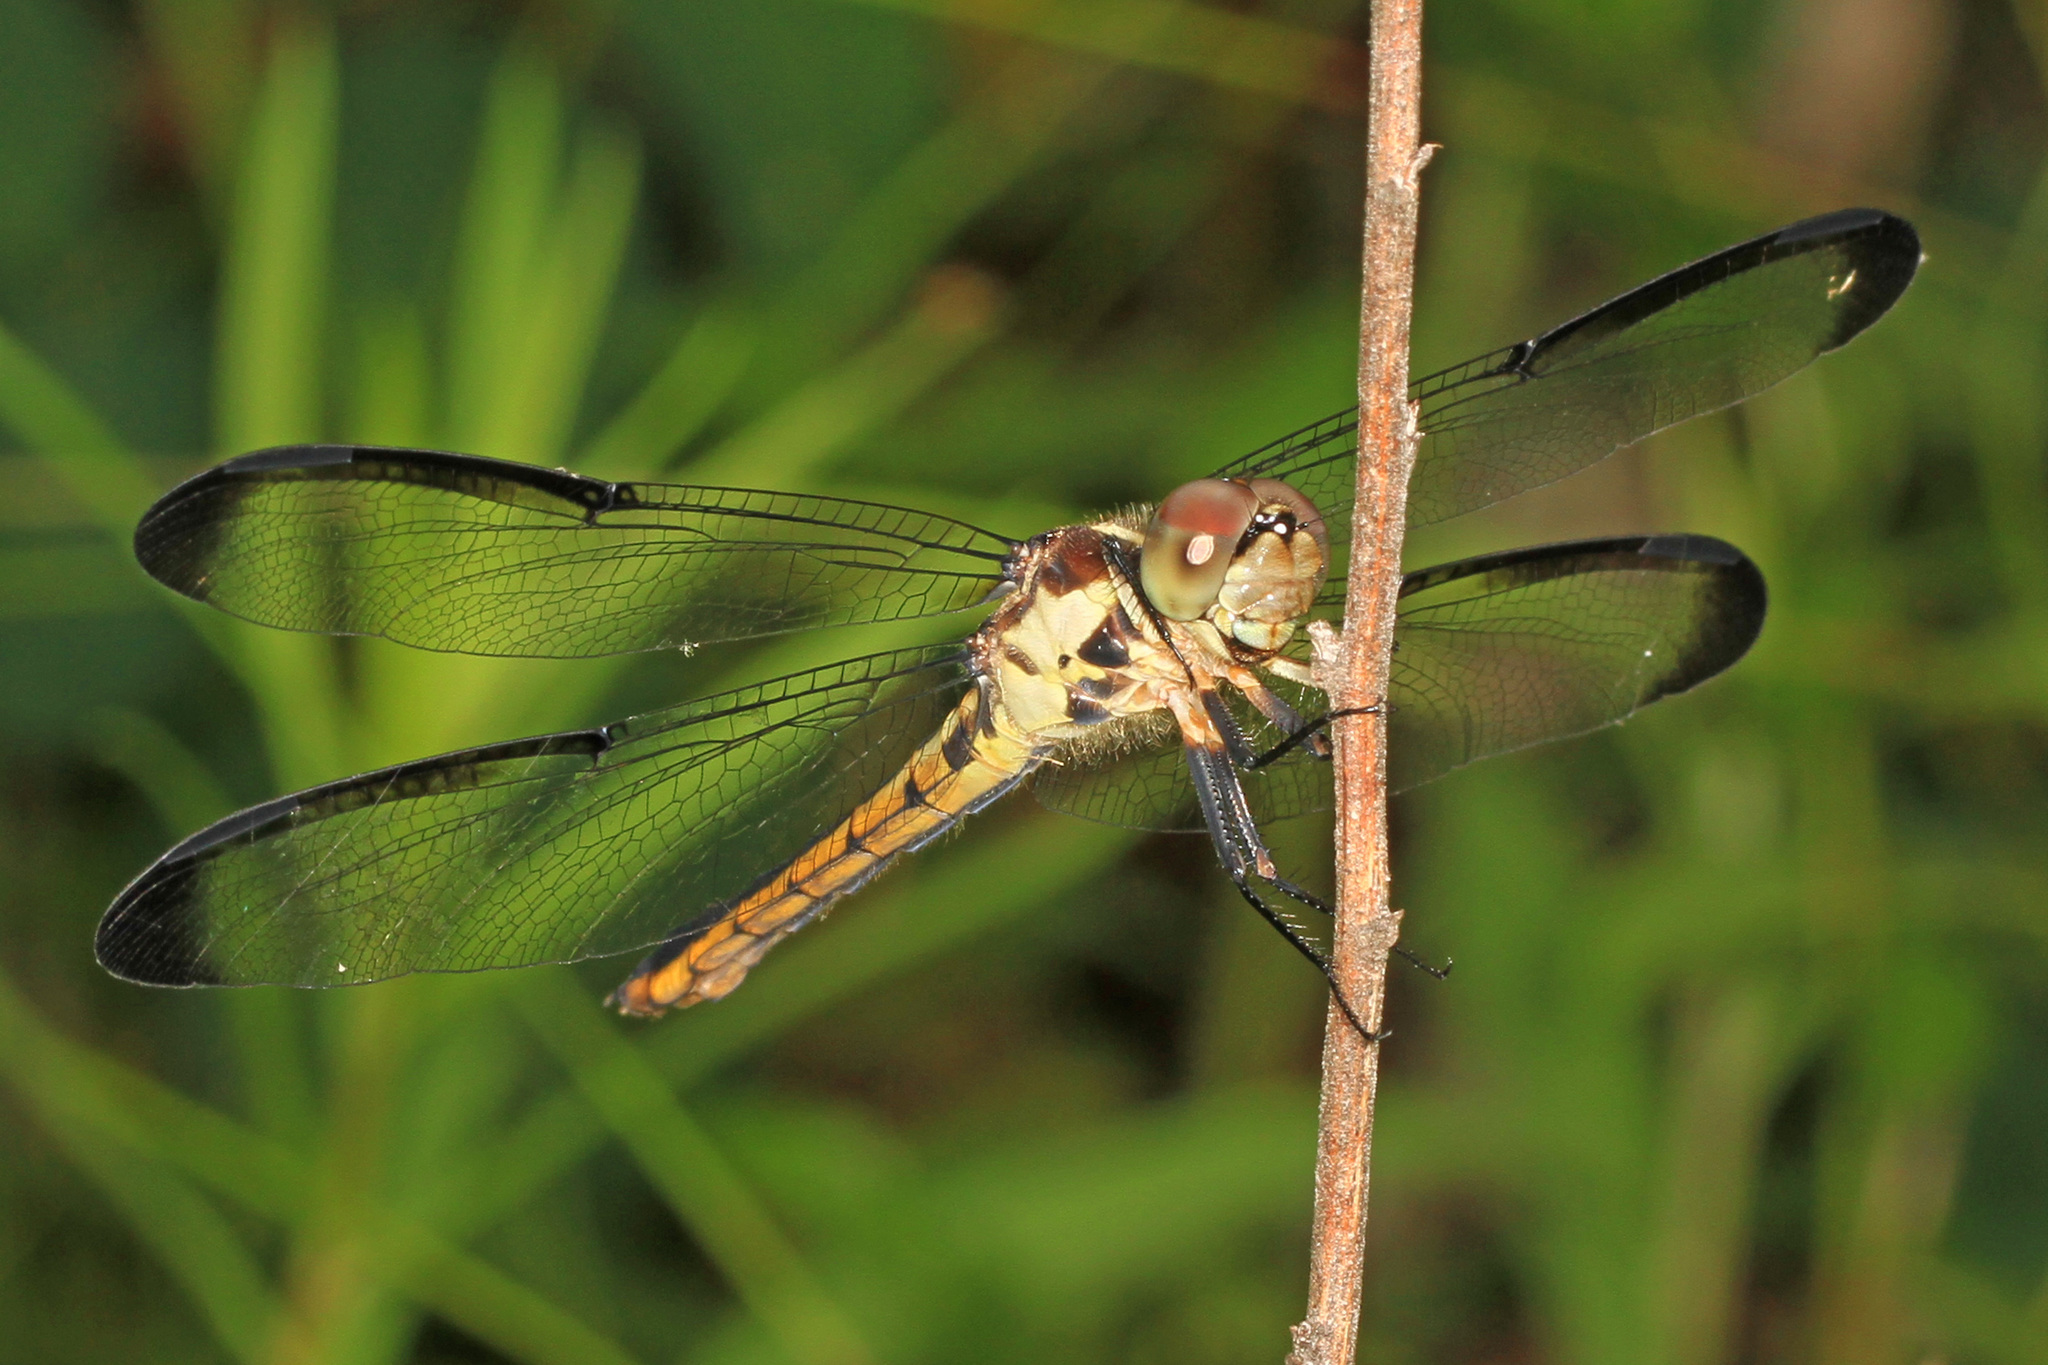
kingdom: Animalia
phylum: Arthropoda
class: Insecta
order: Odonata
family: Libellulidae
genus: Libellula
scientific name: Libellula vibrans
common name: Great blue skimmer
